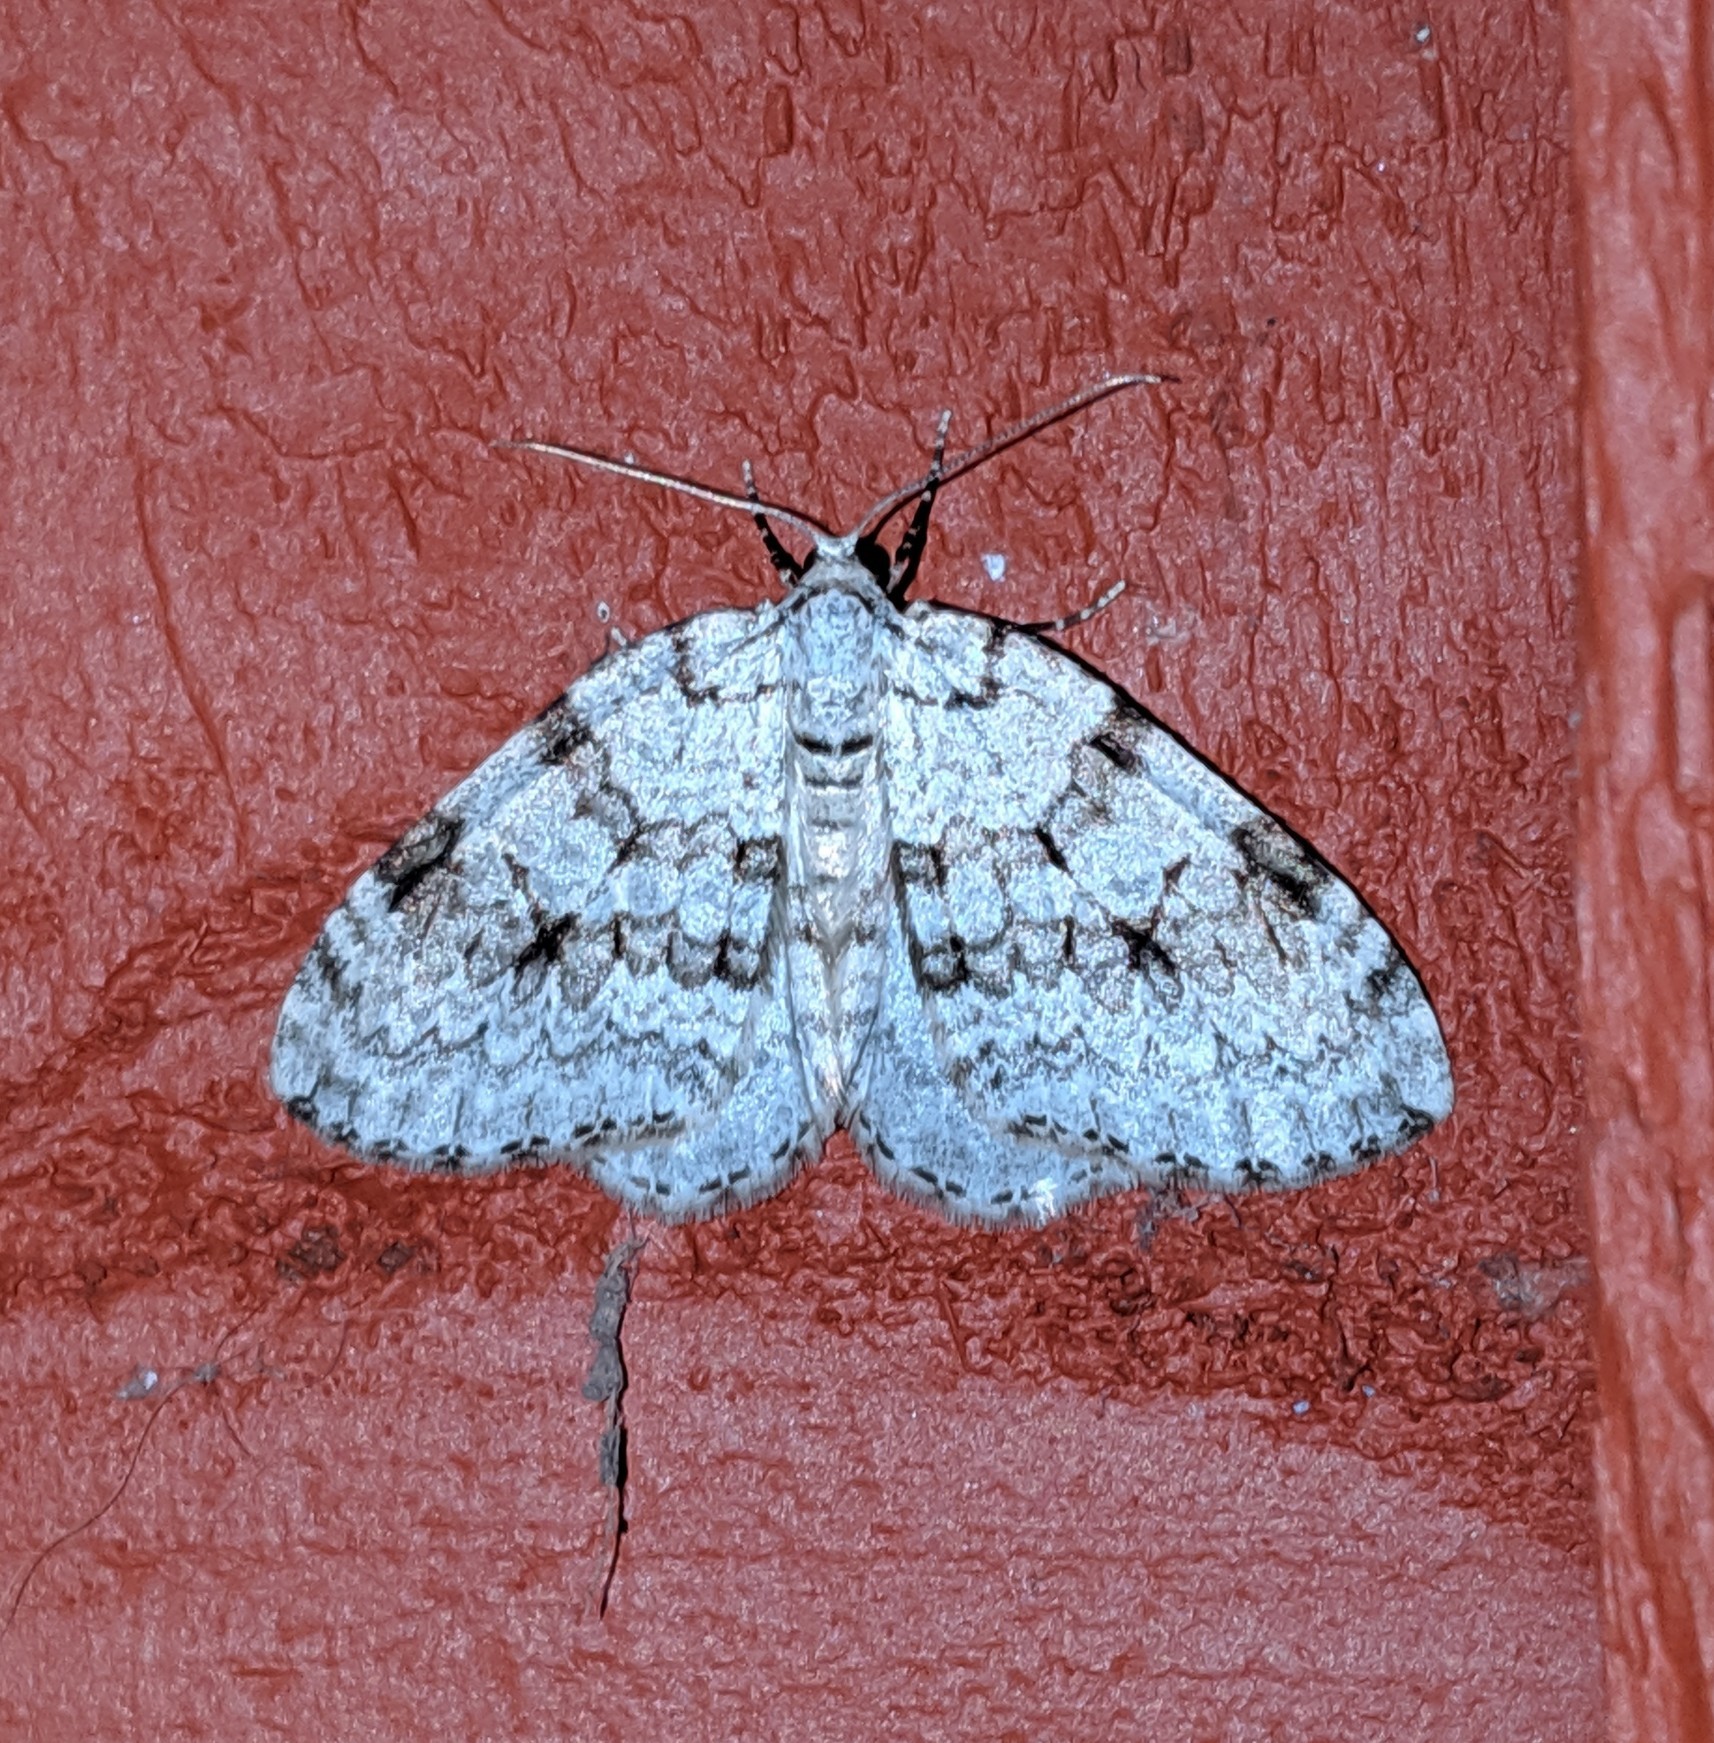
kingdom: Animalia
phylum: Arthropoda
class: Insecta
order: Lepidoptera
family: Geometridae
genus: Epirrita
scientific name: Epirrita autumnata
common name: Autumnal moth
